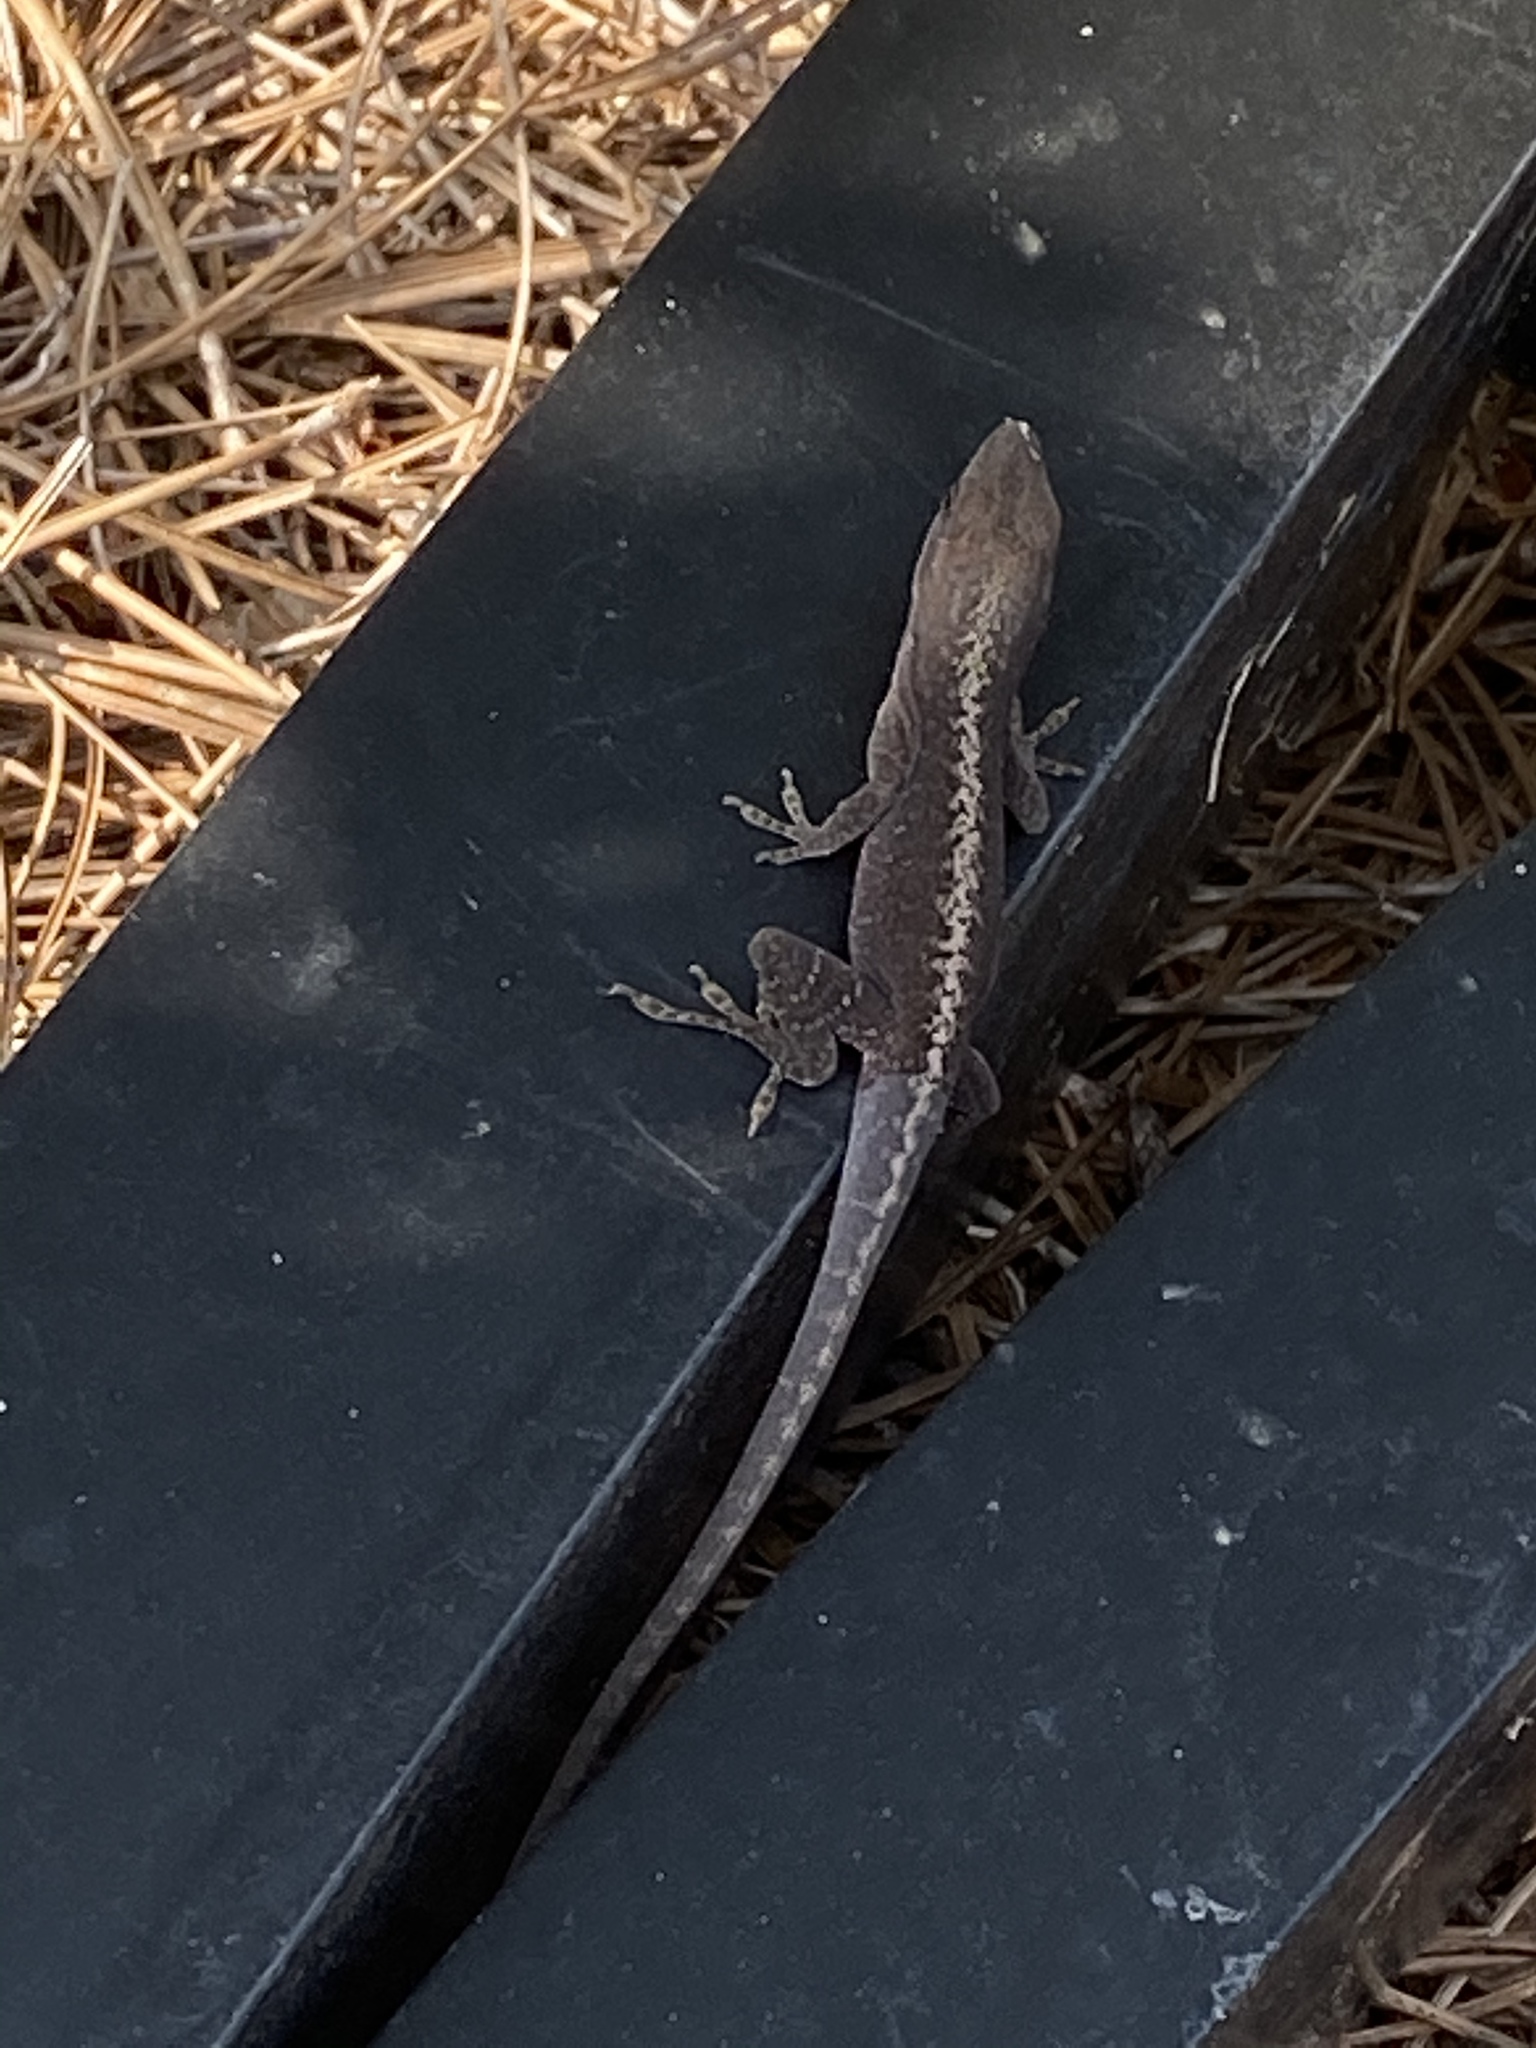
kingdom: Animalia
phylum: Chordata
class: Squamata
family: Dactyloidae
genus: Anolis
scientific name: Anolis carolinensis
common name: Green anole
